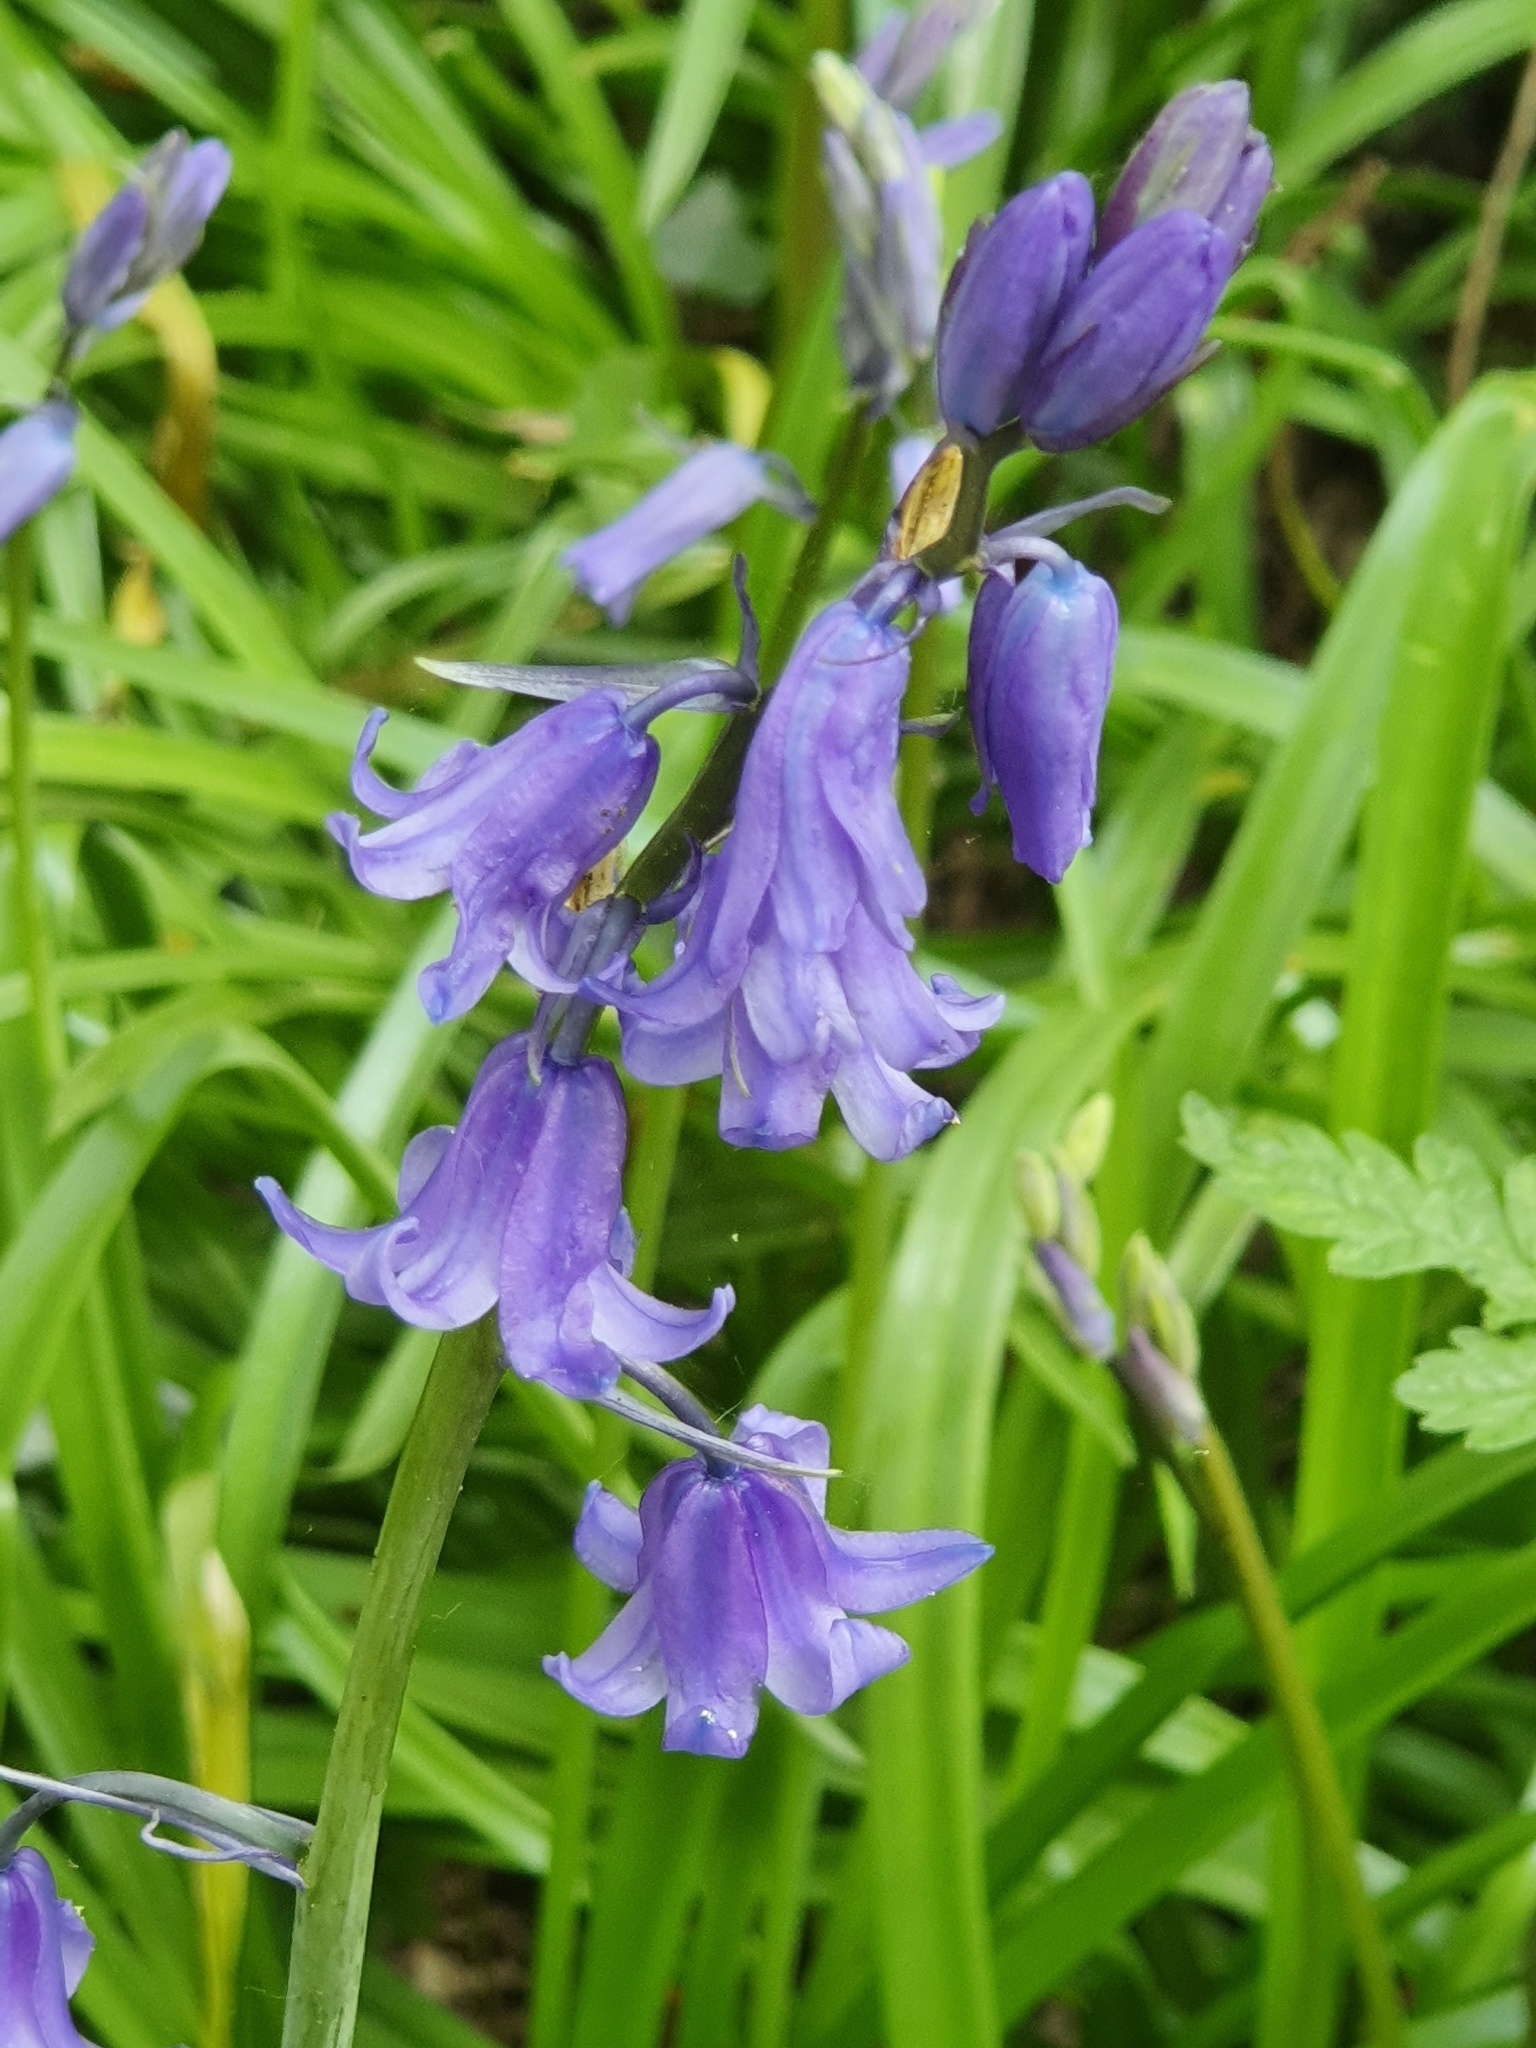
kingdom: Plantae
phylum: Tracheophyta
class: Liliopsida
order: Asparagales
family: Asparagaceae
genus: Hyacinthoides
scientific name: Hyacinthoides hispanica
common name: Spanish bluebell
